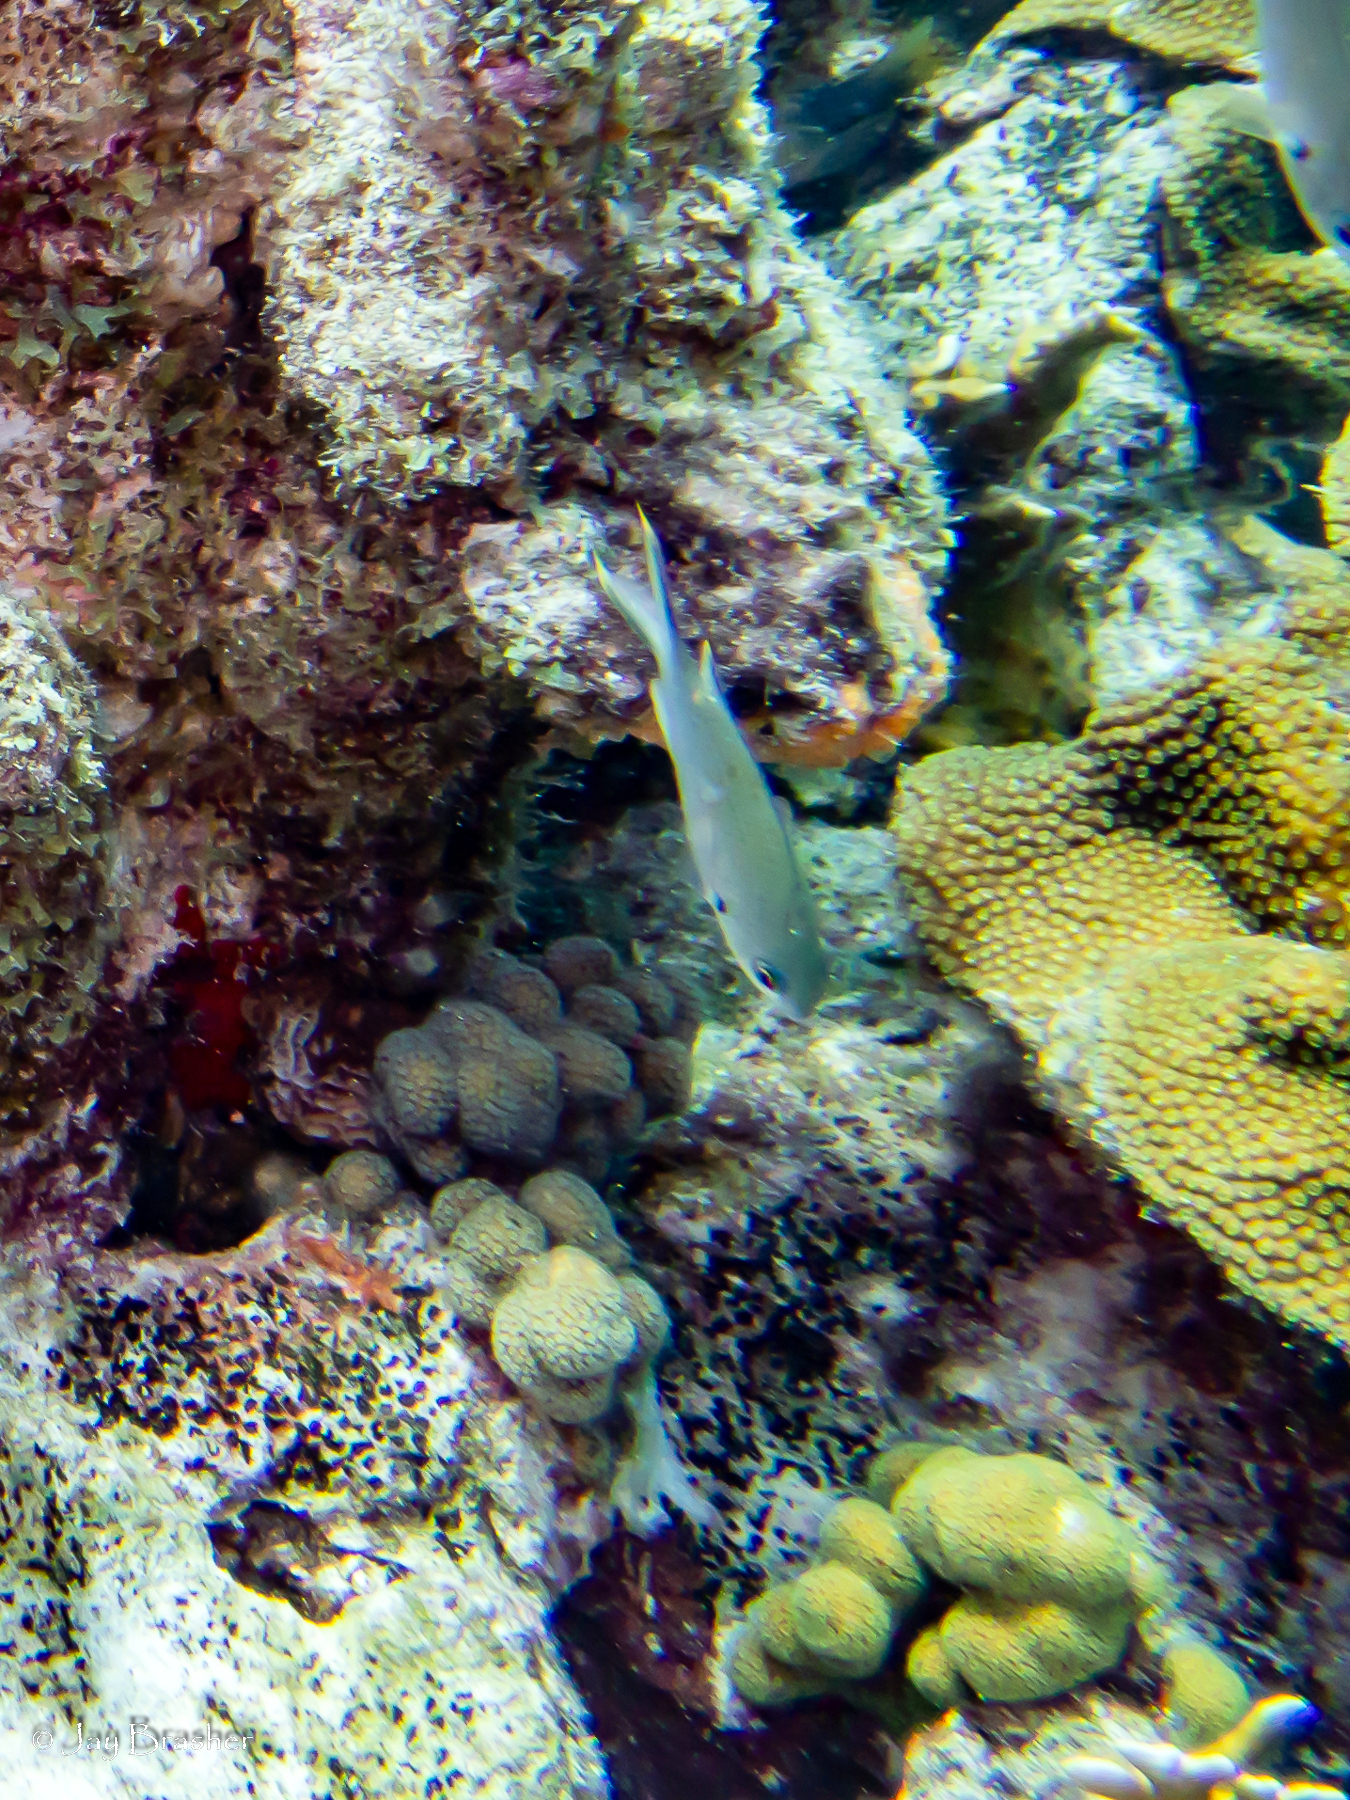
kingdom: Animalia
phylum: Cnidaria
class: Anthozoa
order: Scleractinia
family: Pocilloporidae
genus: Madracis
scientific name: Madracis decactis
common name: Ten-ray star coral
